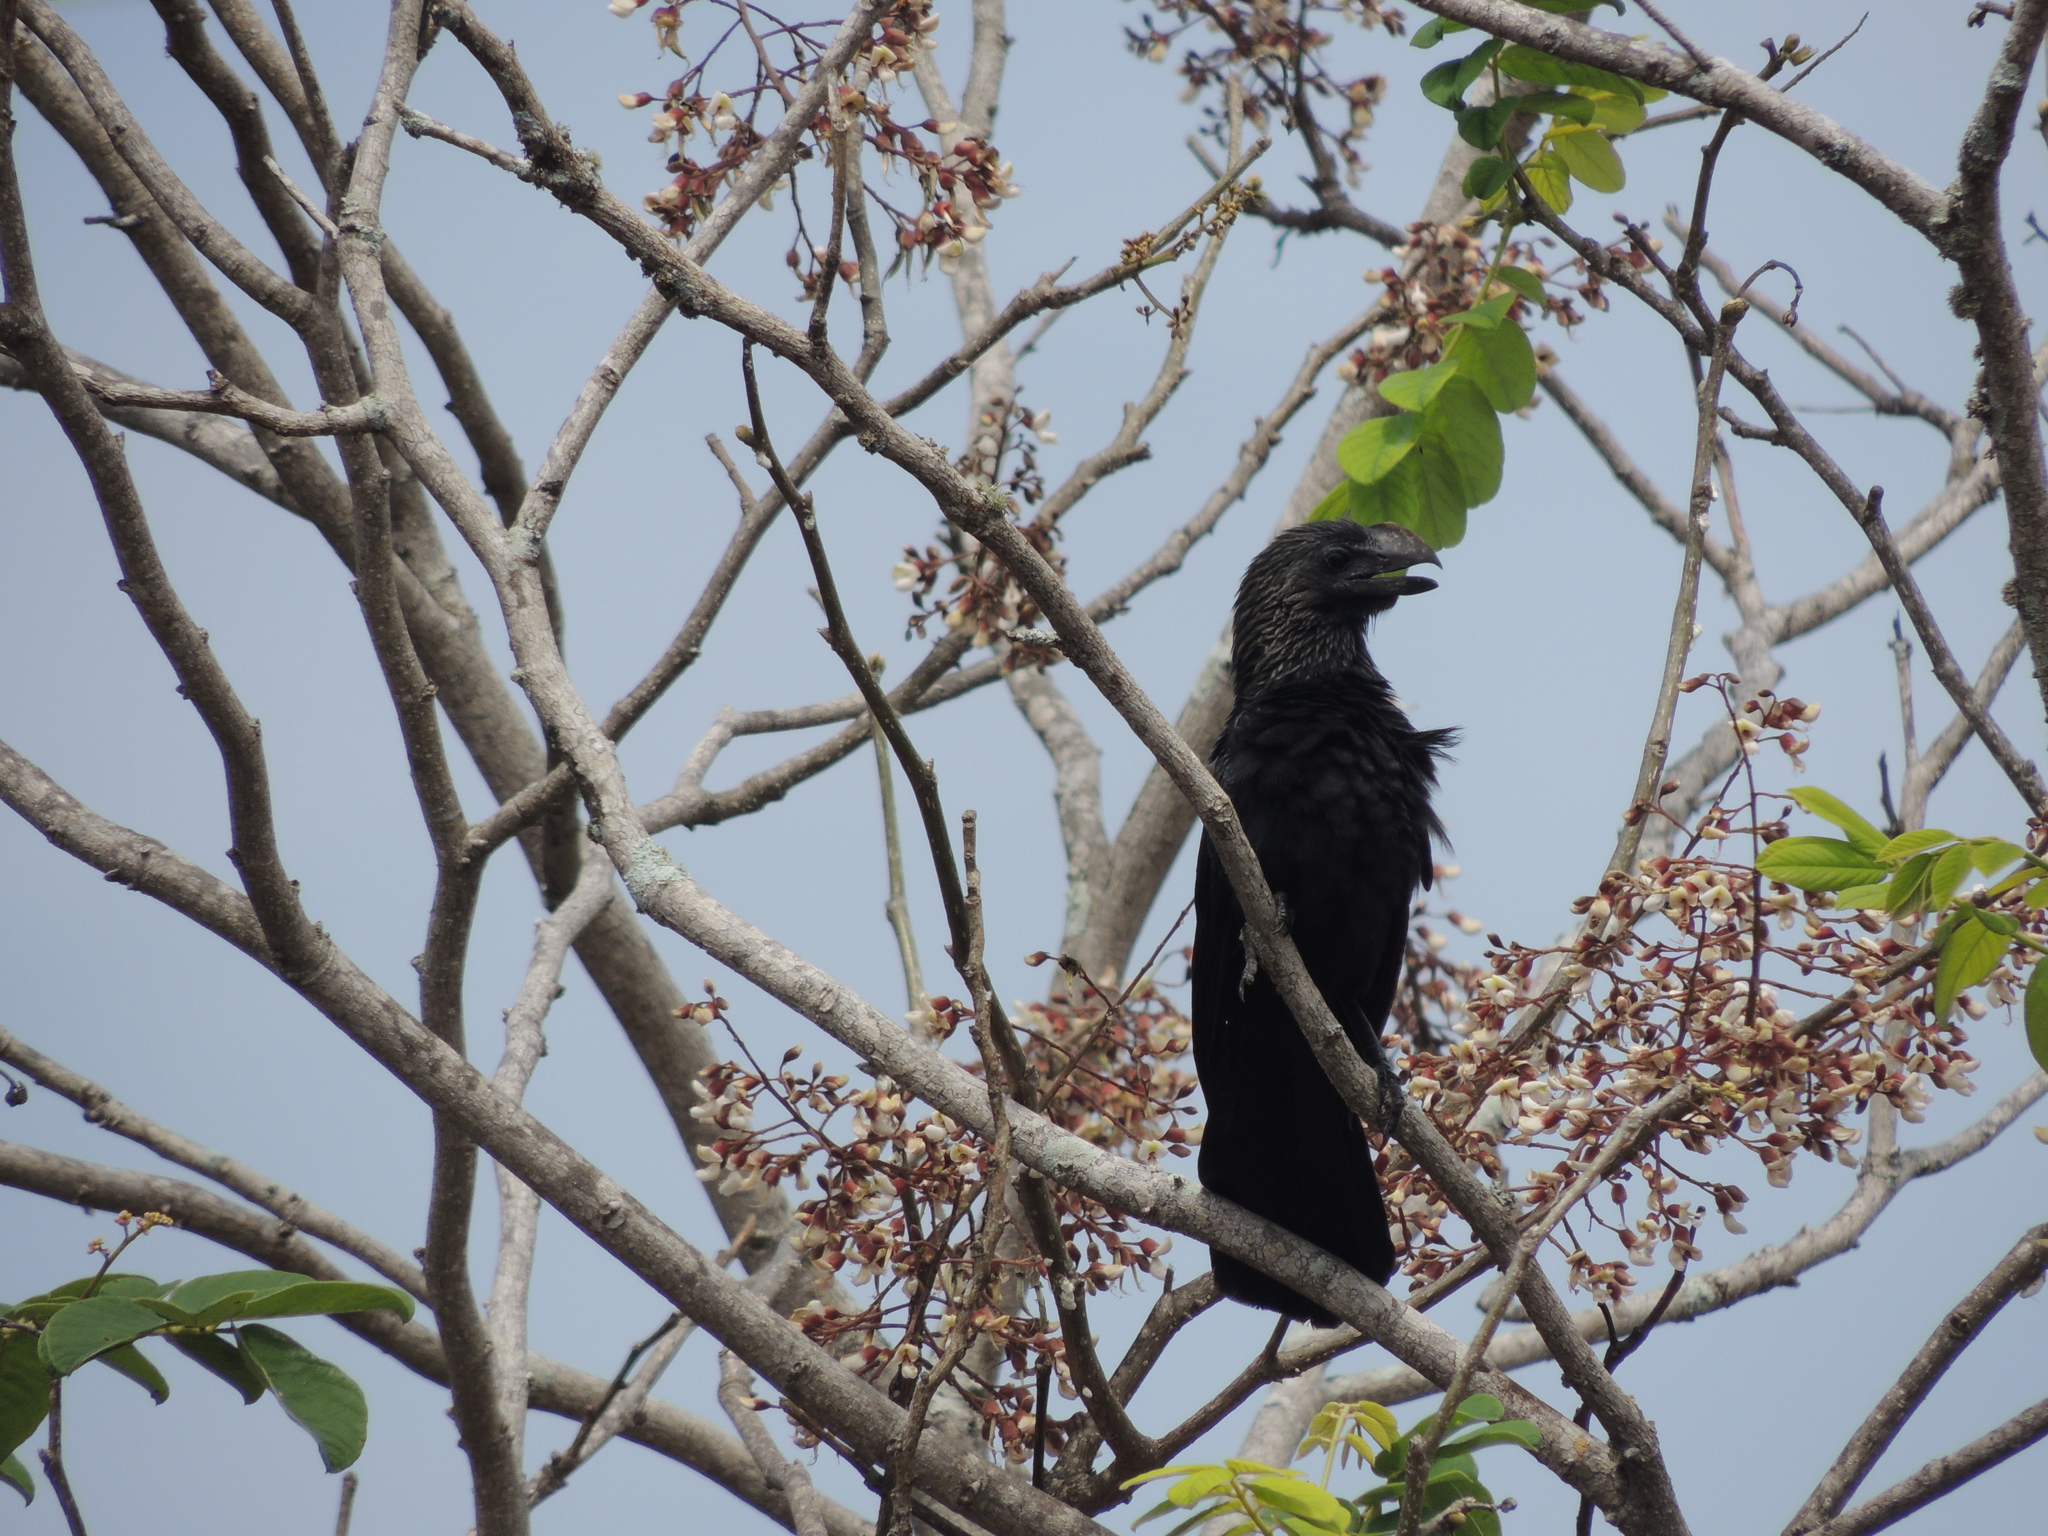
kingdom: Animalia
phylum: Chordata
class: Aves
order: Cuculiformes
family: Cuculidae
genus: Crotophaga
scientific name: Crotophaga ani
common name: Smooth-billed ani
